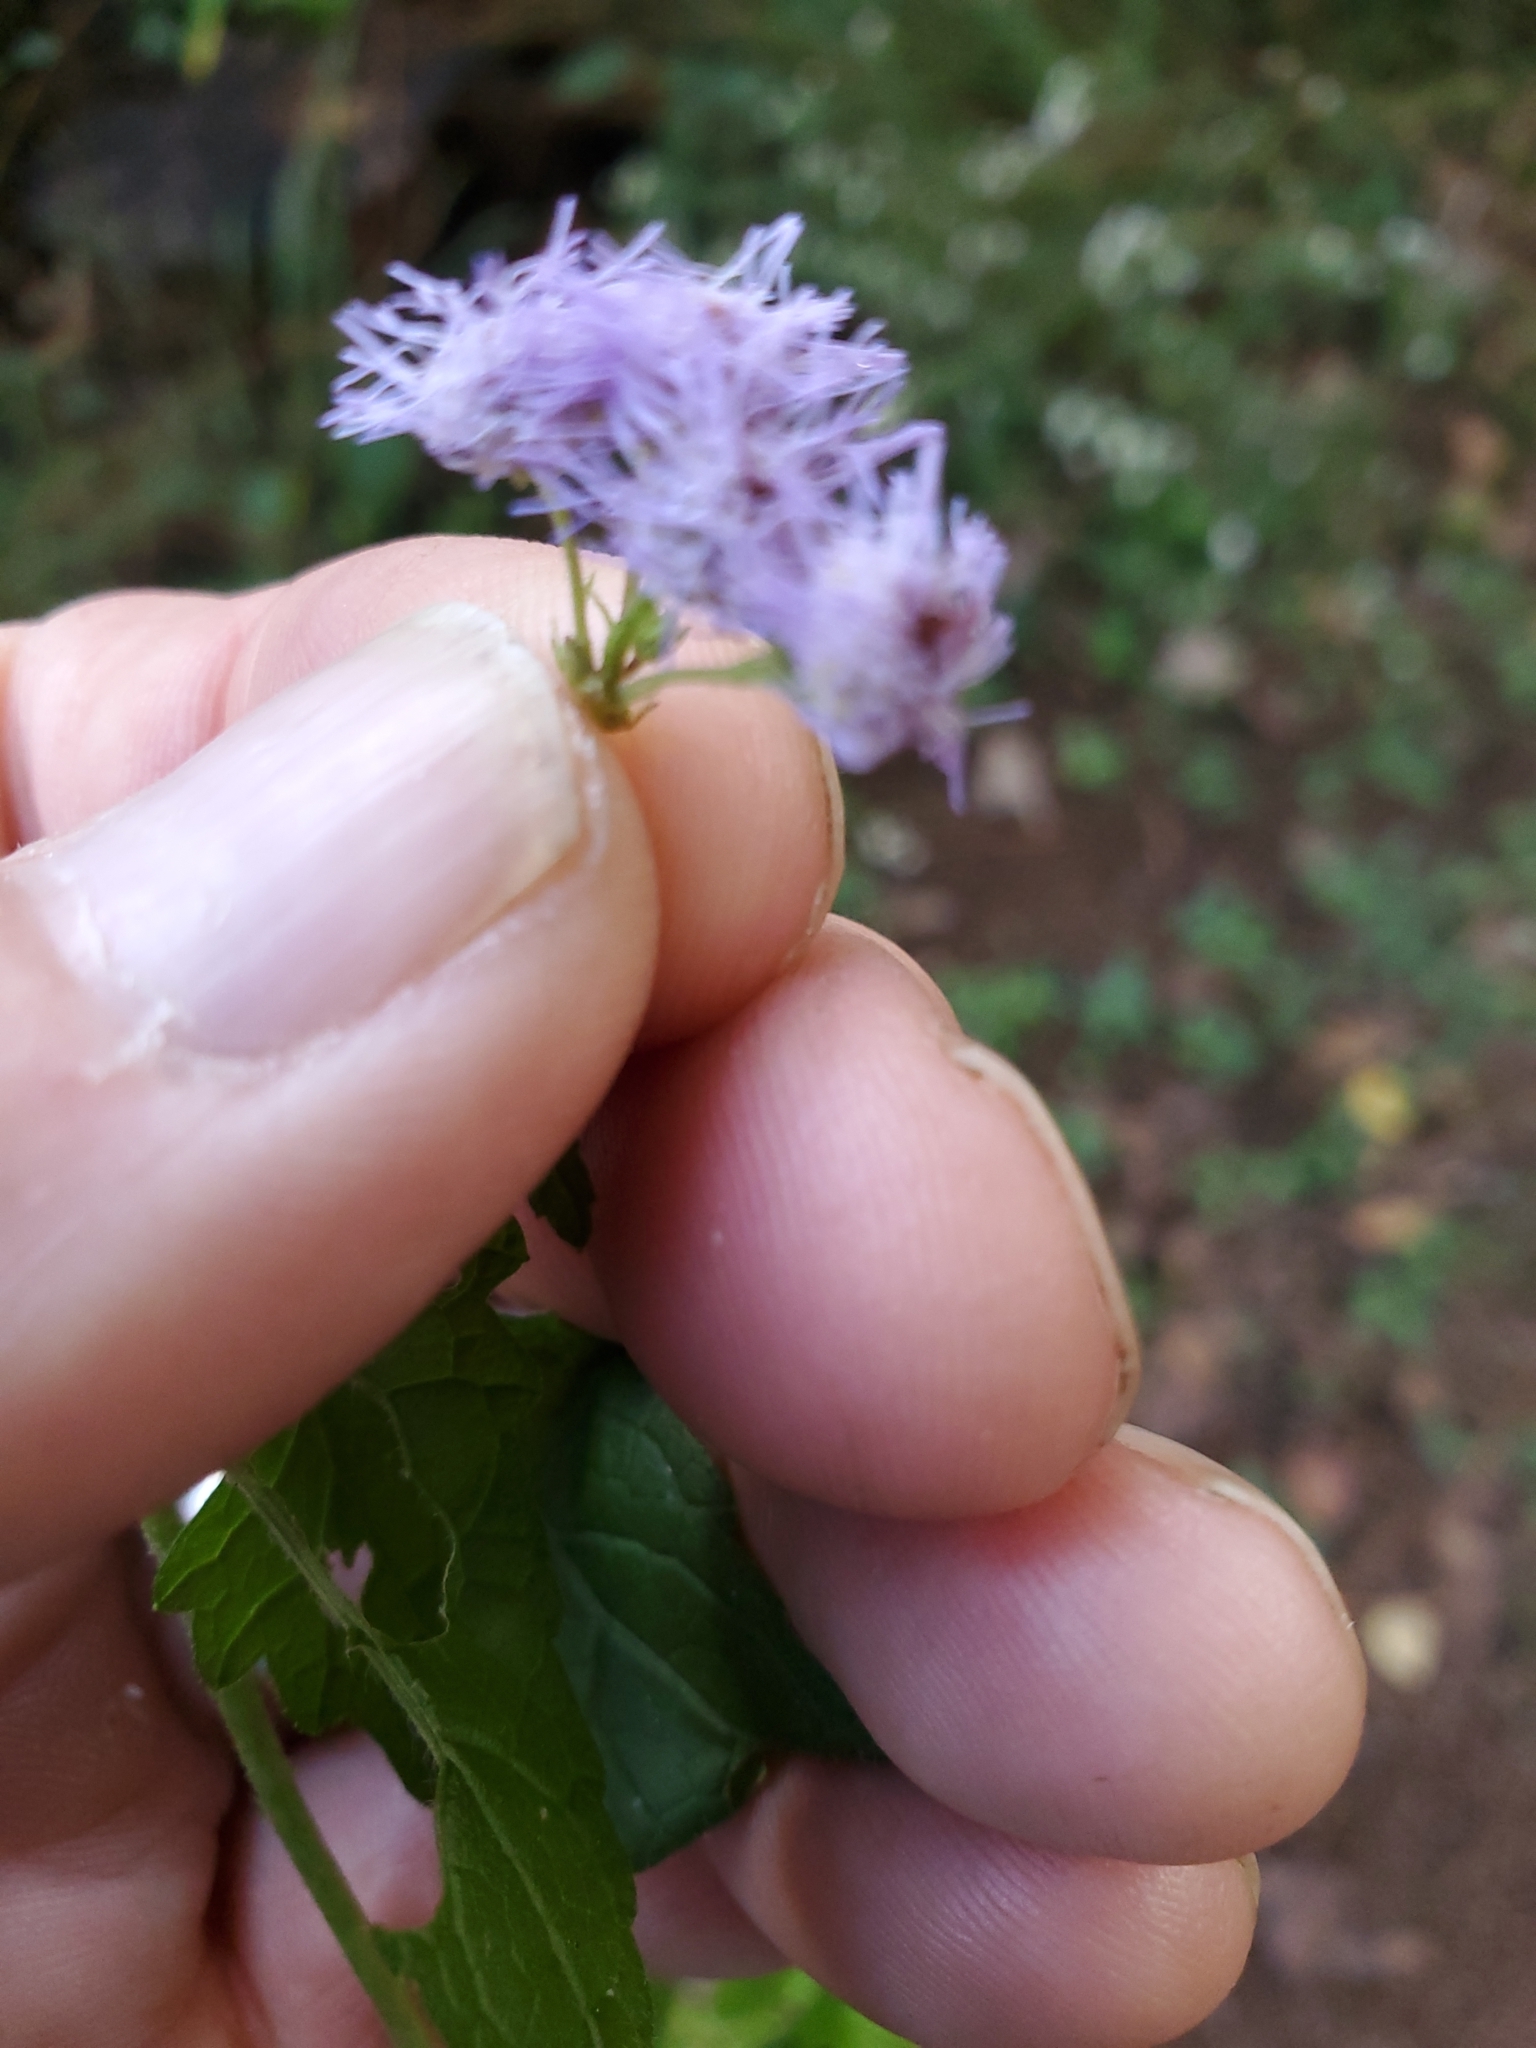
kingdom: Plantae
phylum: Tracheophyta
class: Magnoliopsida
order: Asterales
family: Asteraceae
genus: Conoclinium
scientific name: Conoclinium coelestinum
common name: Blue mistflower
